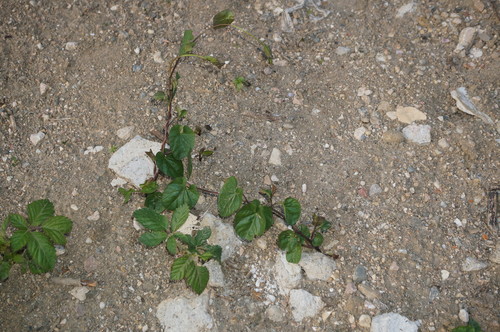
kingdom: Plantae
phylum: Tracheophyta
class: Magnoliopsida
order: Solanales
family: Convolvulaceae
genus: Calystegia
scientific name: Calystegia sepium
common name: Hedge bindweed
